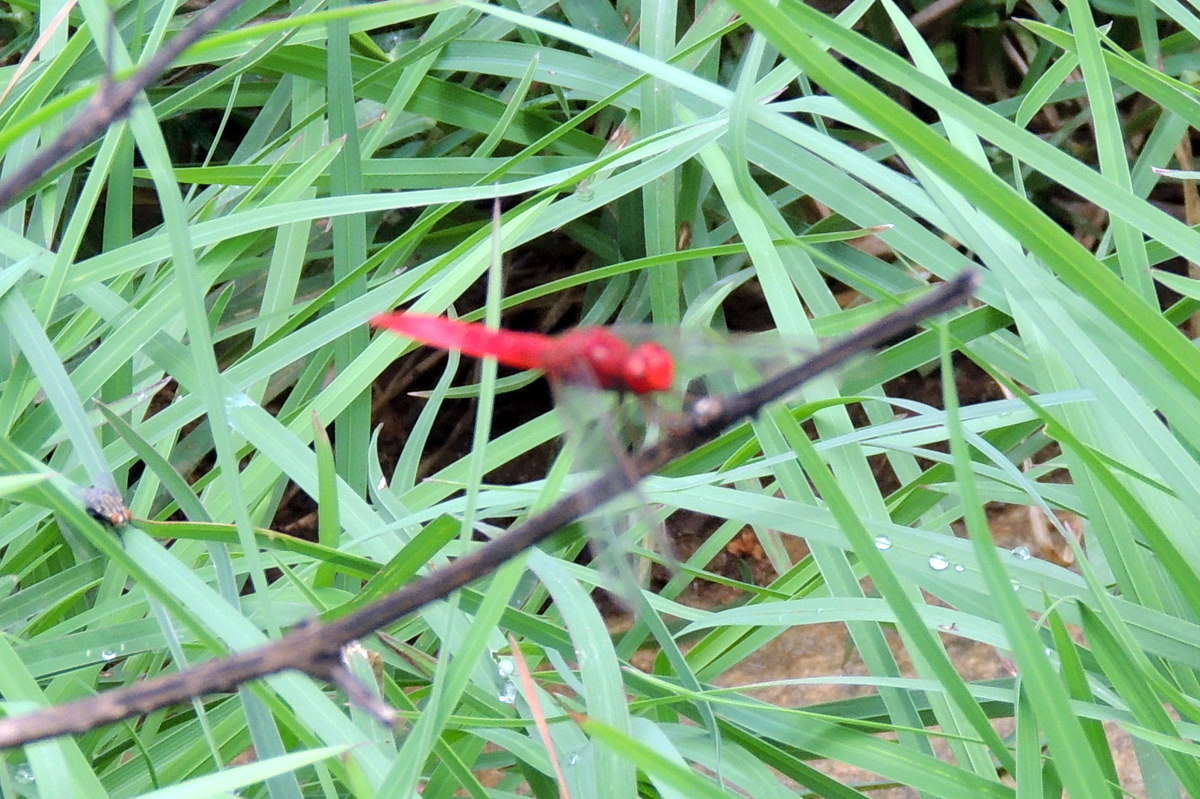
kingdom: Animalia
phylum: Arthropoda
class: Insecta
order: Odonata
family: Libellulidae
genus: Crocothemis
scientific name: Crocothemis servilia
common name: Scarlet skimmer
